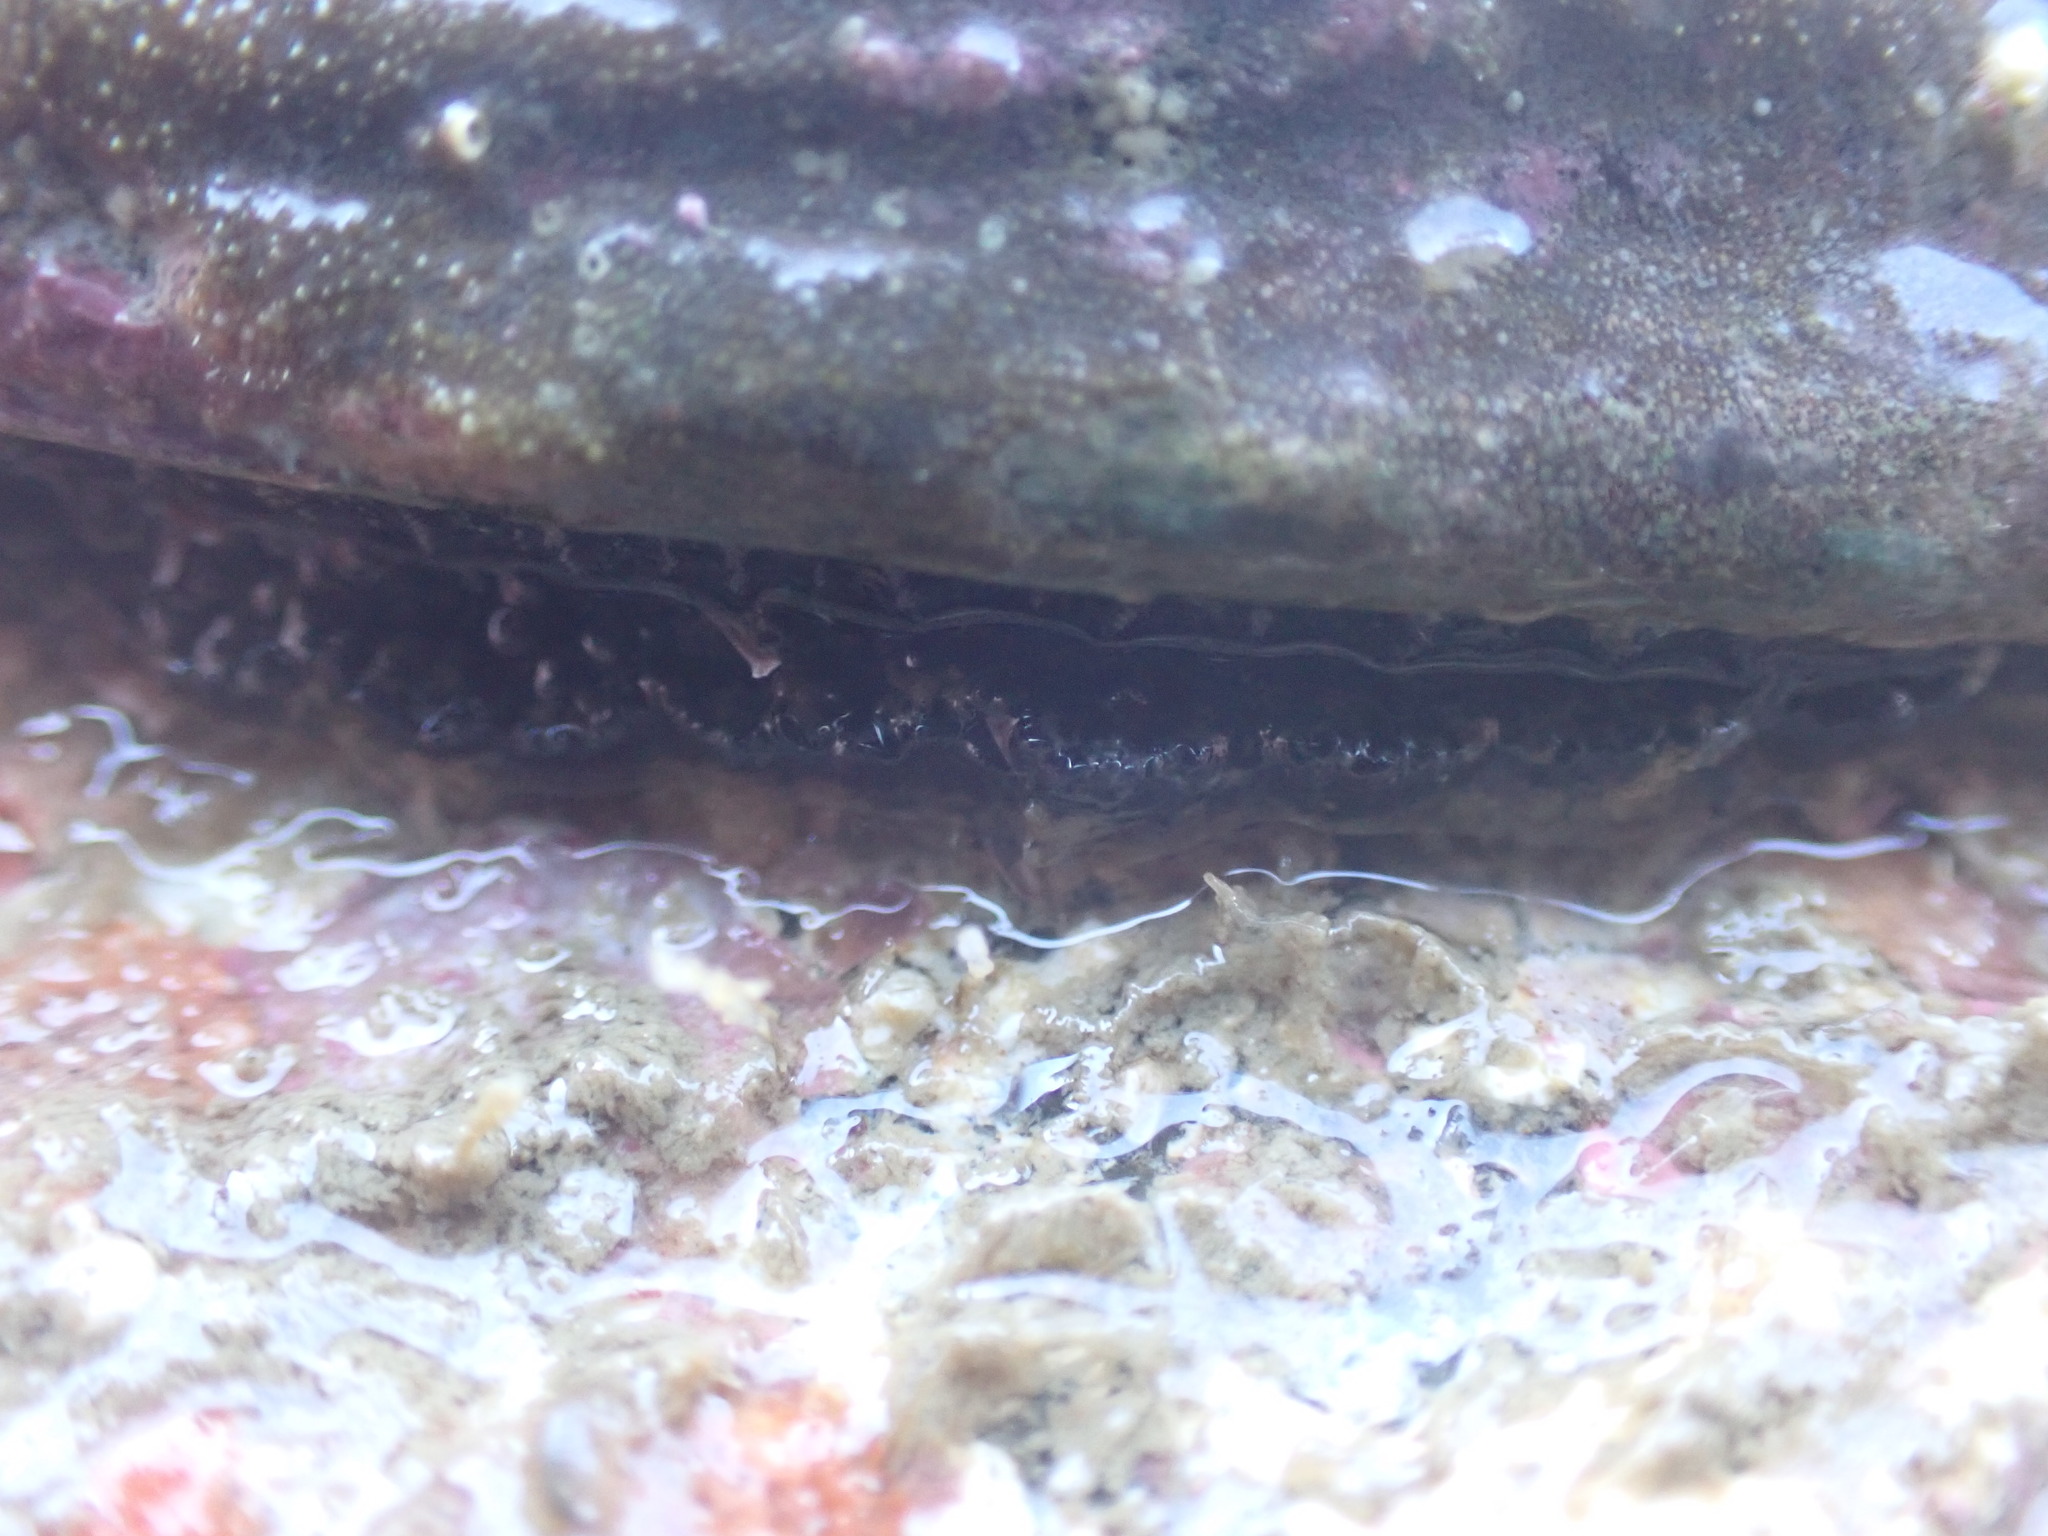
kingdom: Animalia
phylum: Mollusca
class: Gastropoda
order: Lepetellida
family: Haliotidae
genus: Haliotis
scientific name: Haliotis iris
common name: Abalone
